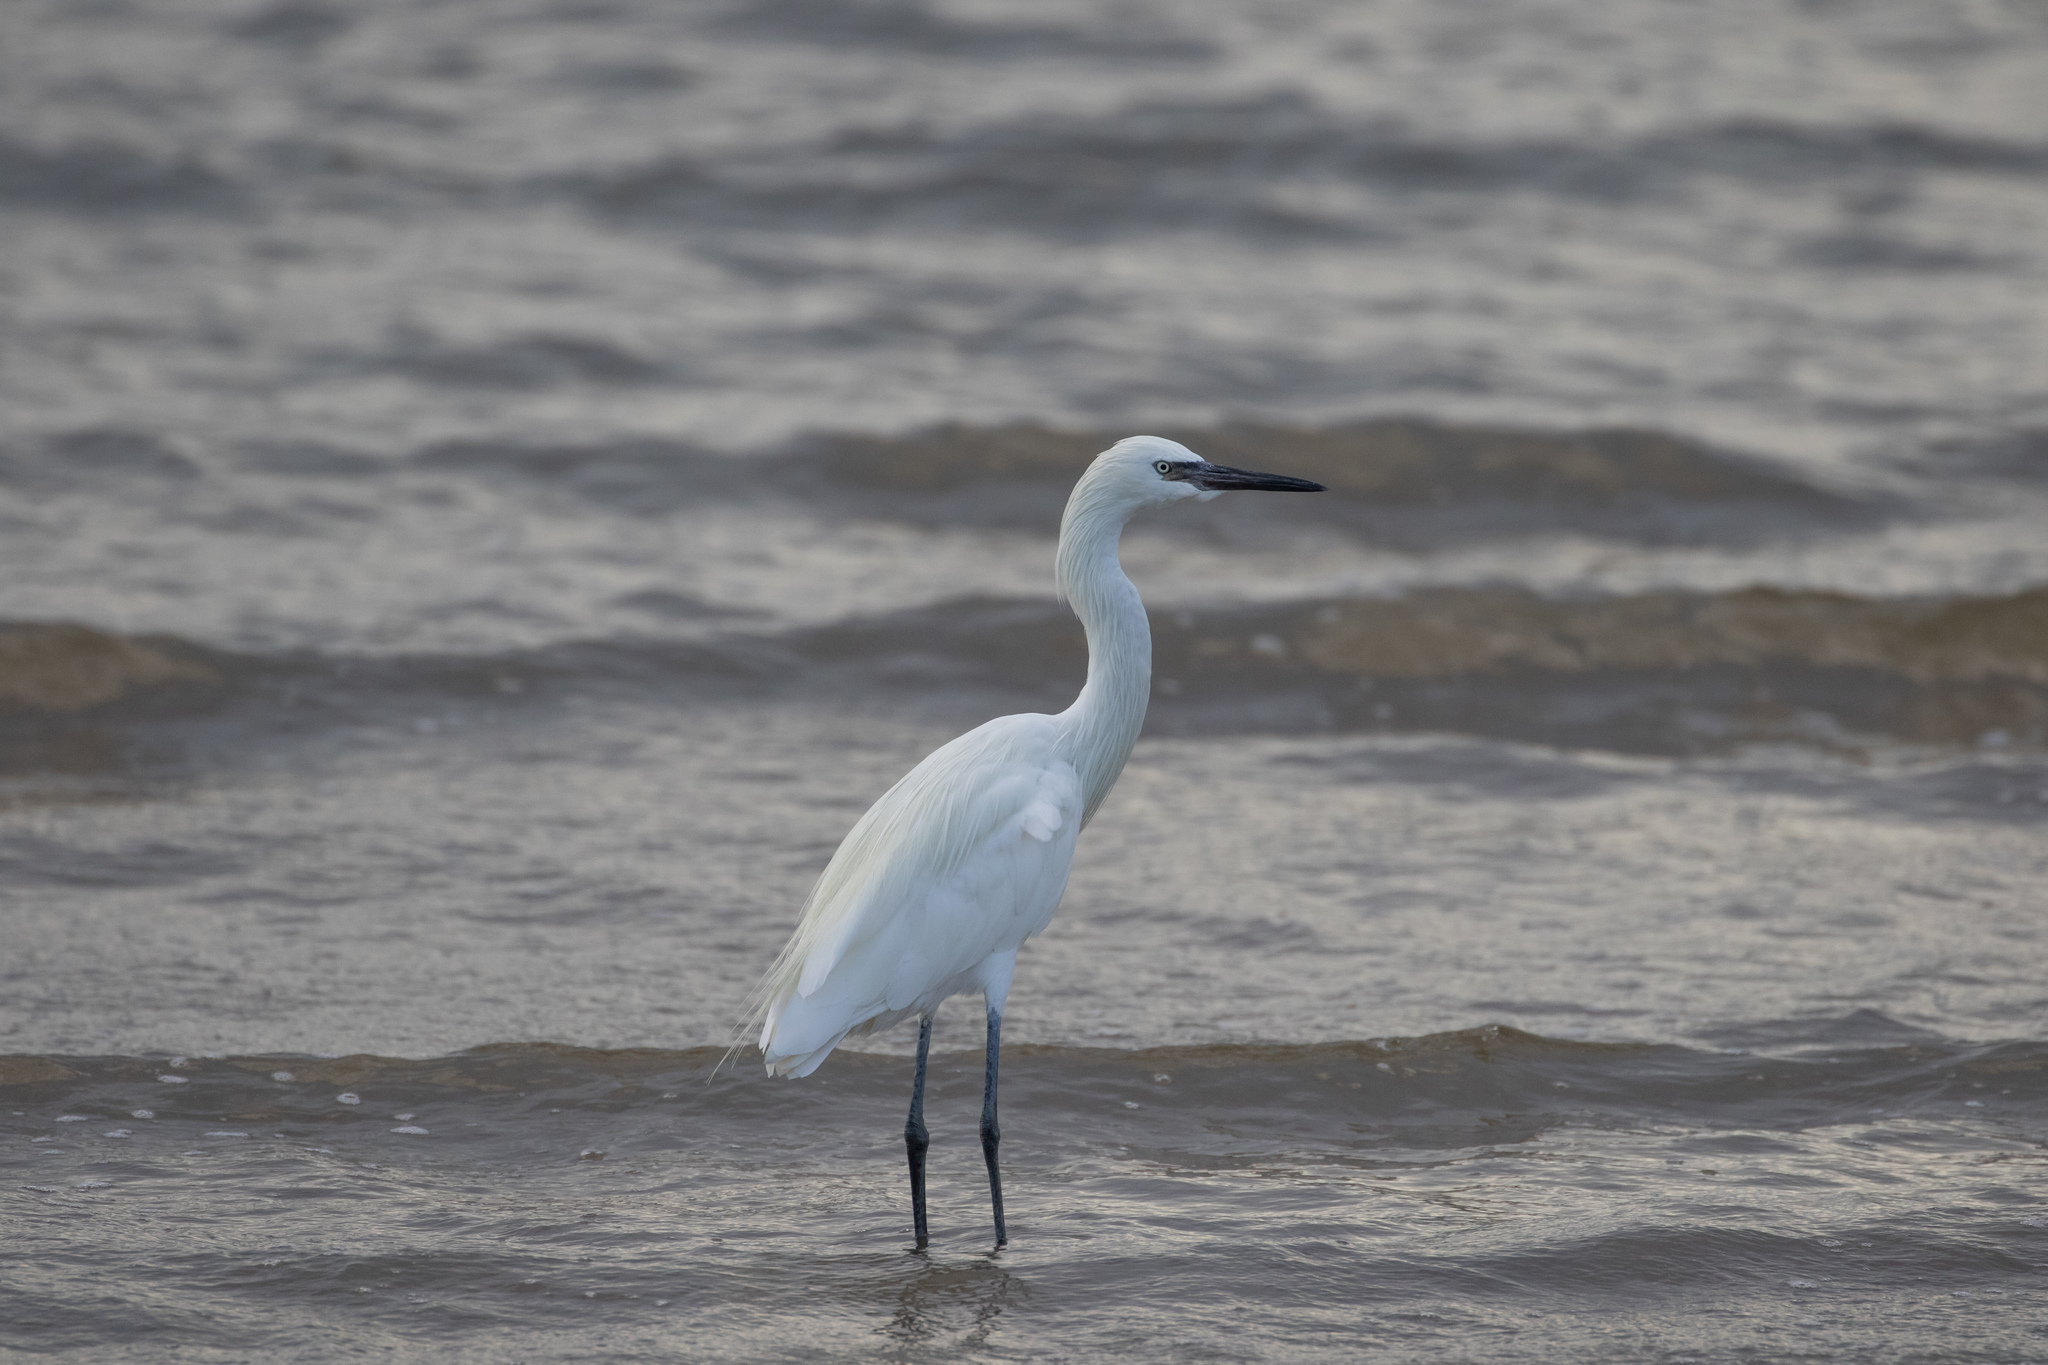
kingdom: Animalia
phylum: Chordata
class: Aves
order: Pelecaniformes
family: Ardeidae
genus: Egretta
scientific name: Egretta rufescens
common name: Reddish egret
